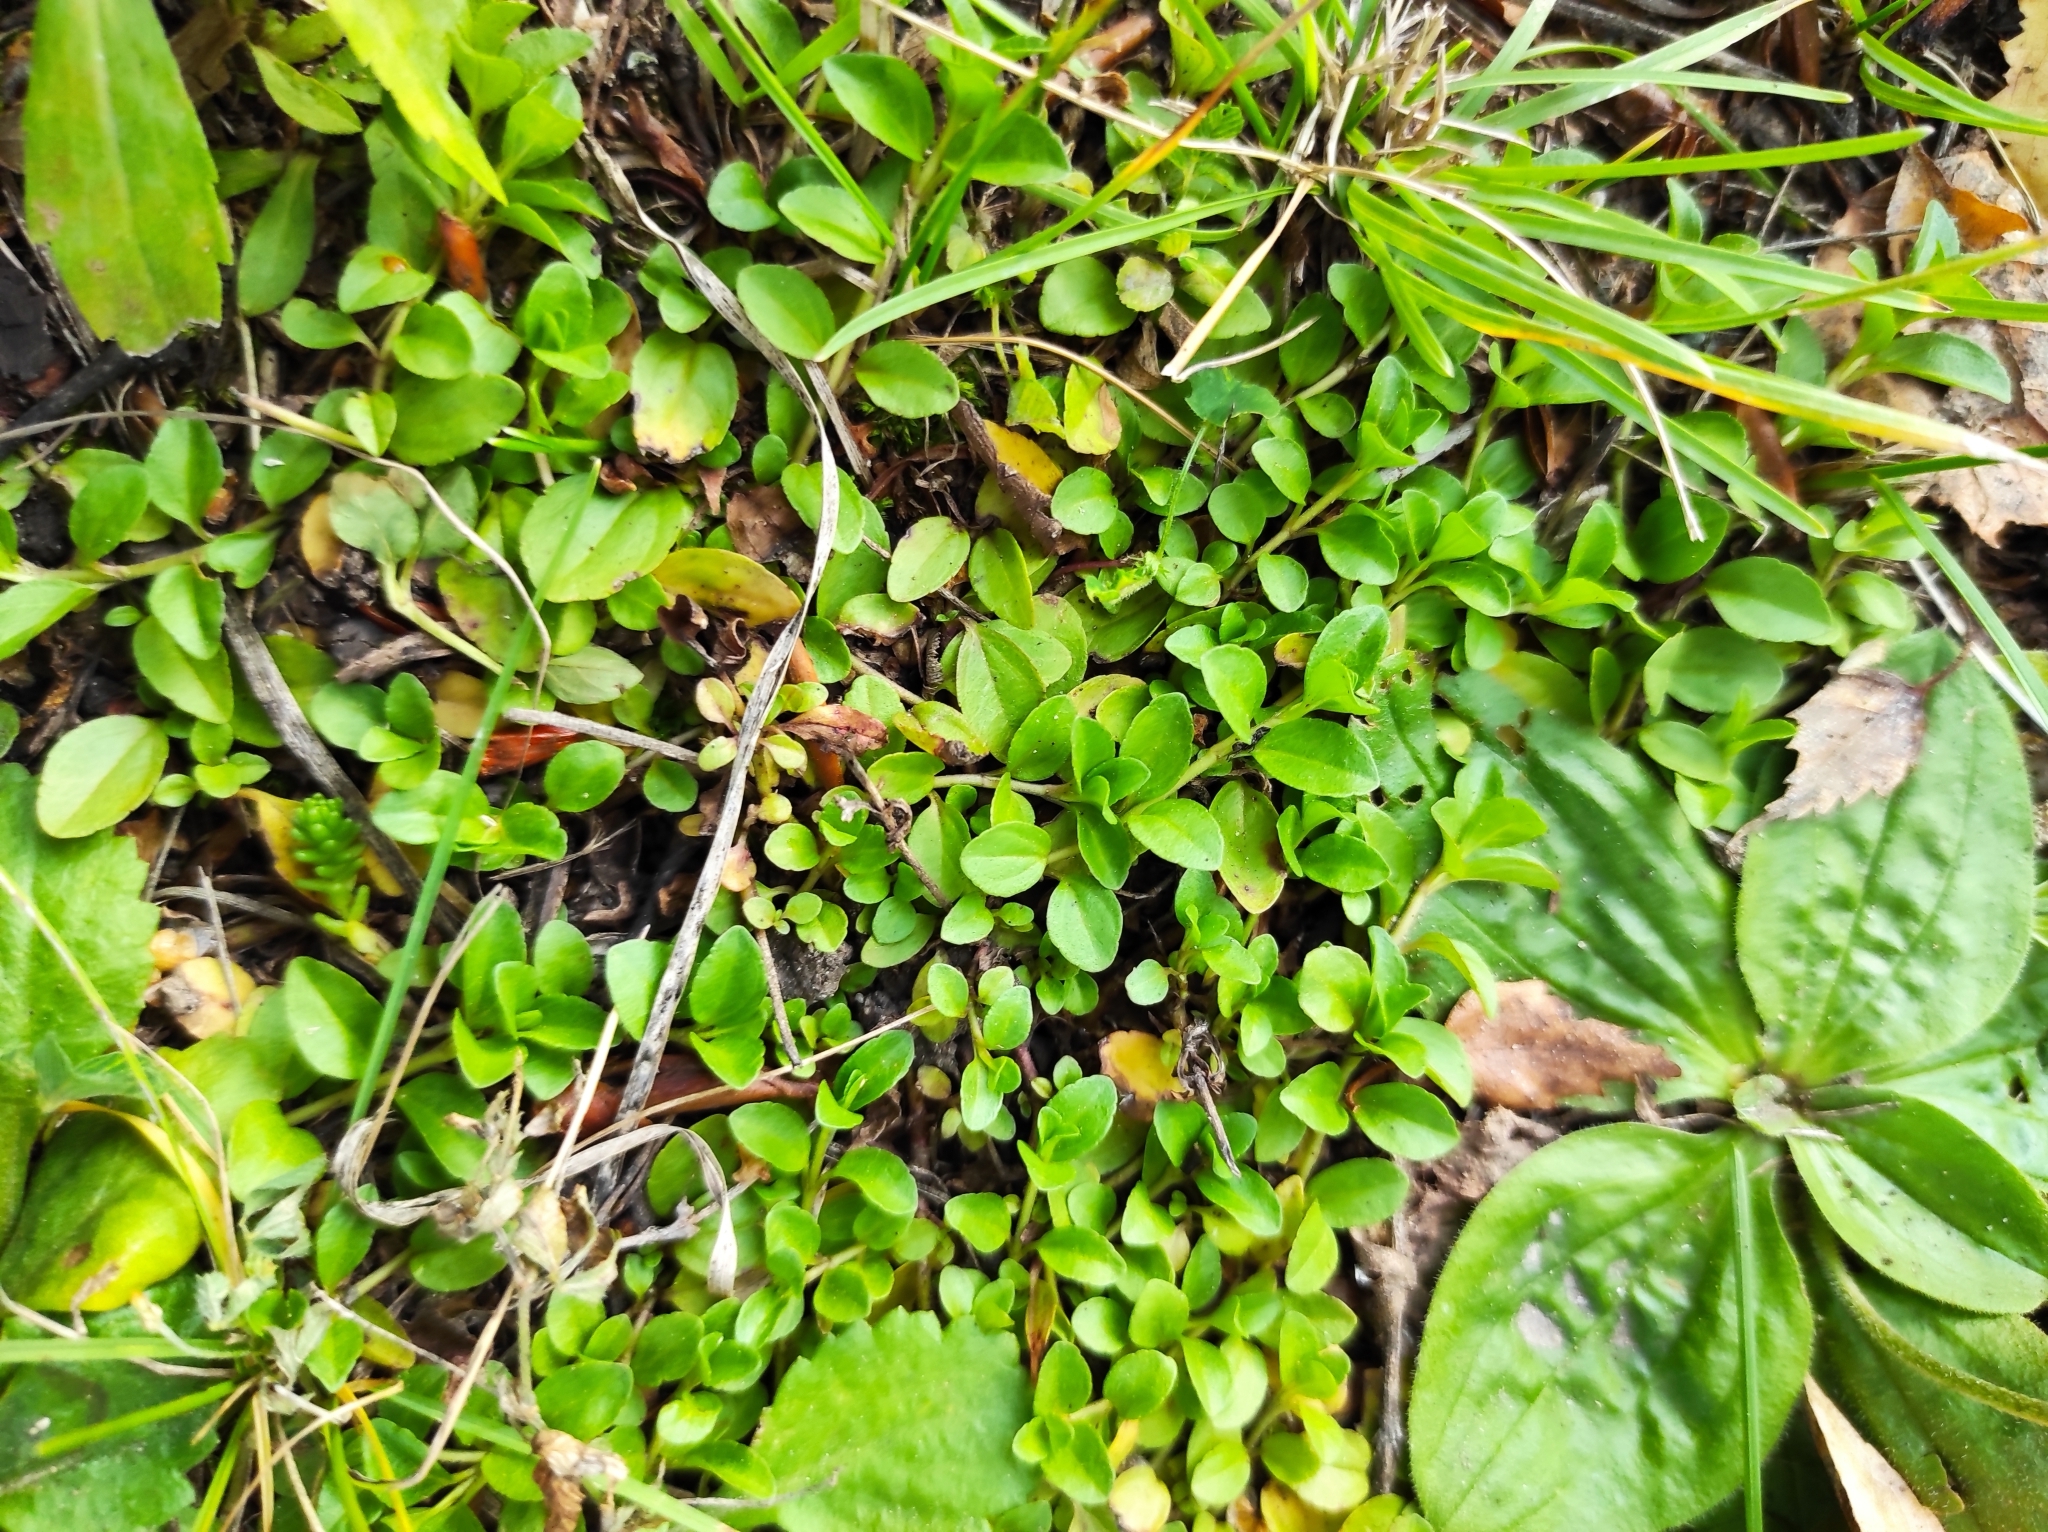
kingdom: Plantae
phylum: Tracheophyta
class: Magnoliopsida
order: Lamiales
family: Plantaginaceae
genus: Veronica
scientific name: Veronica serpyllifolia
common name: Thyme-leaved speedwell
